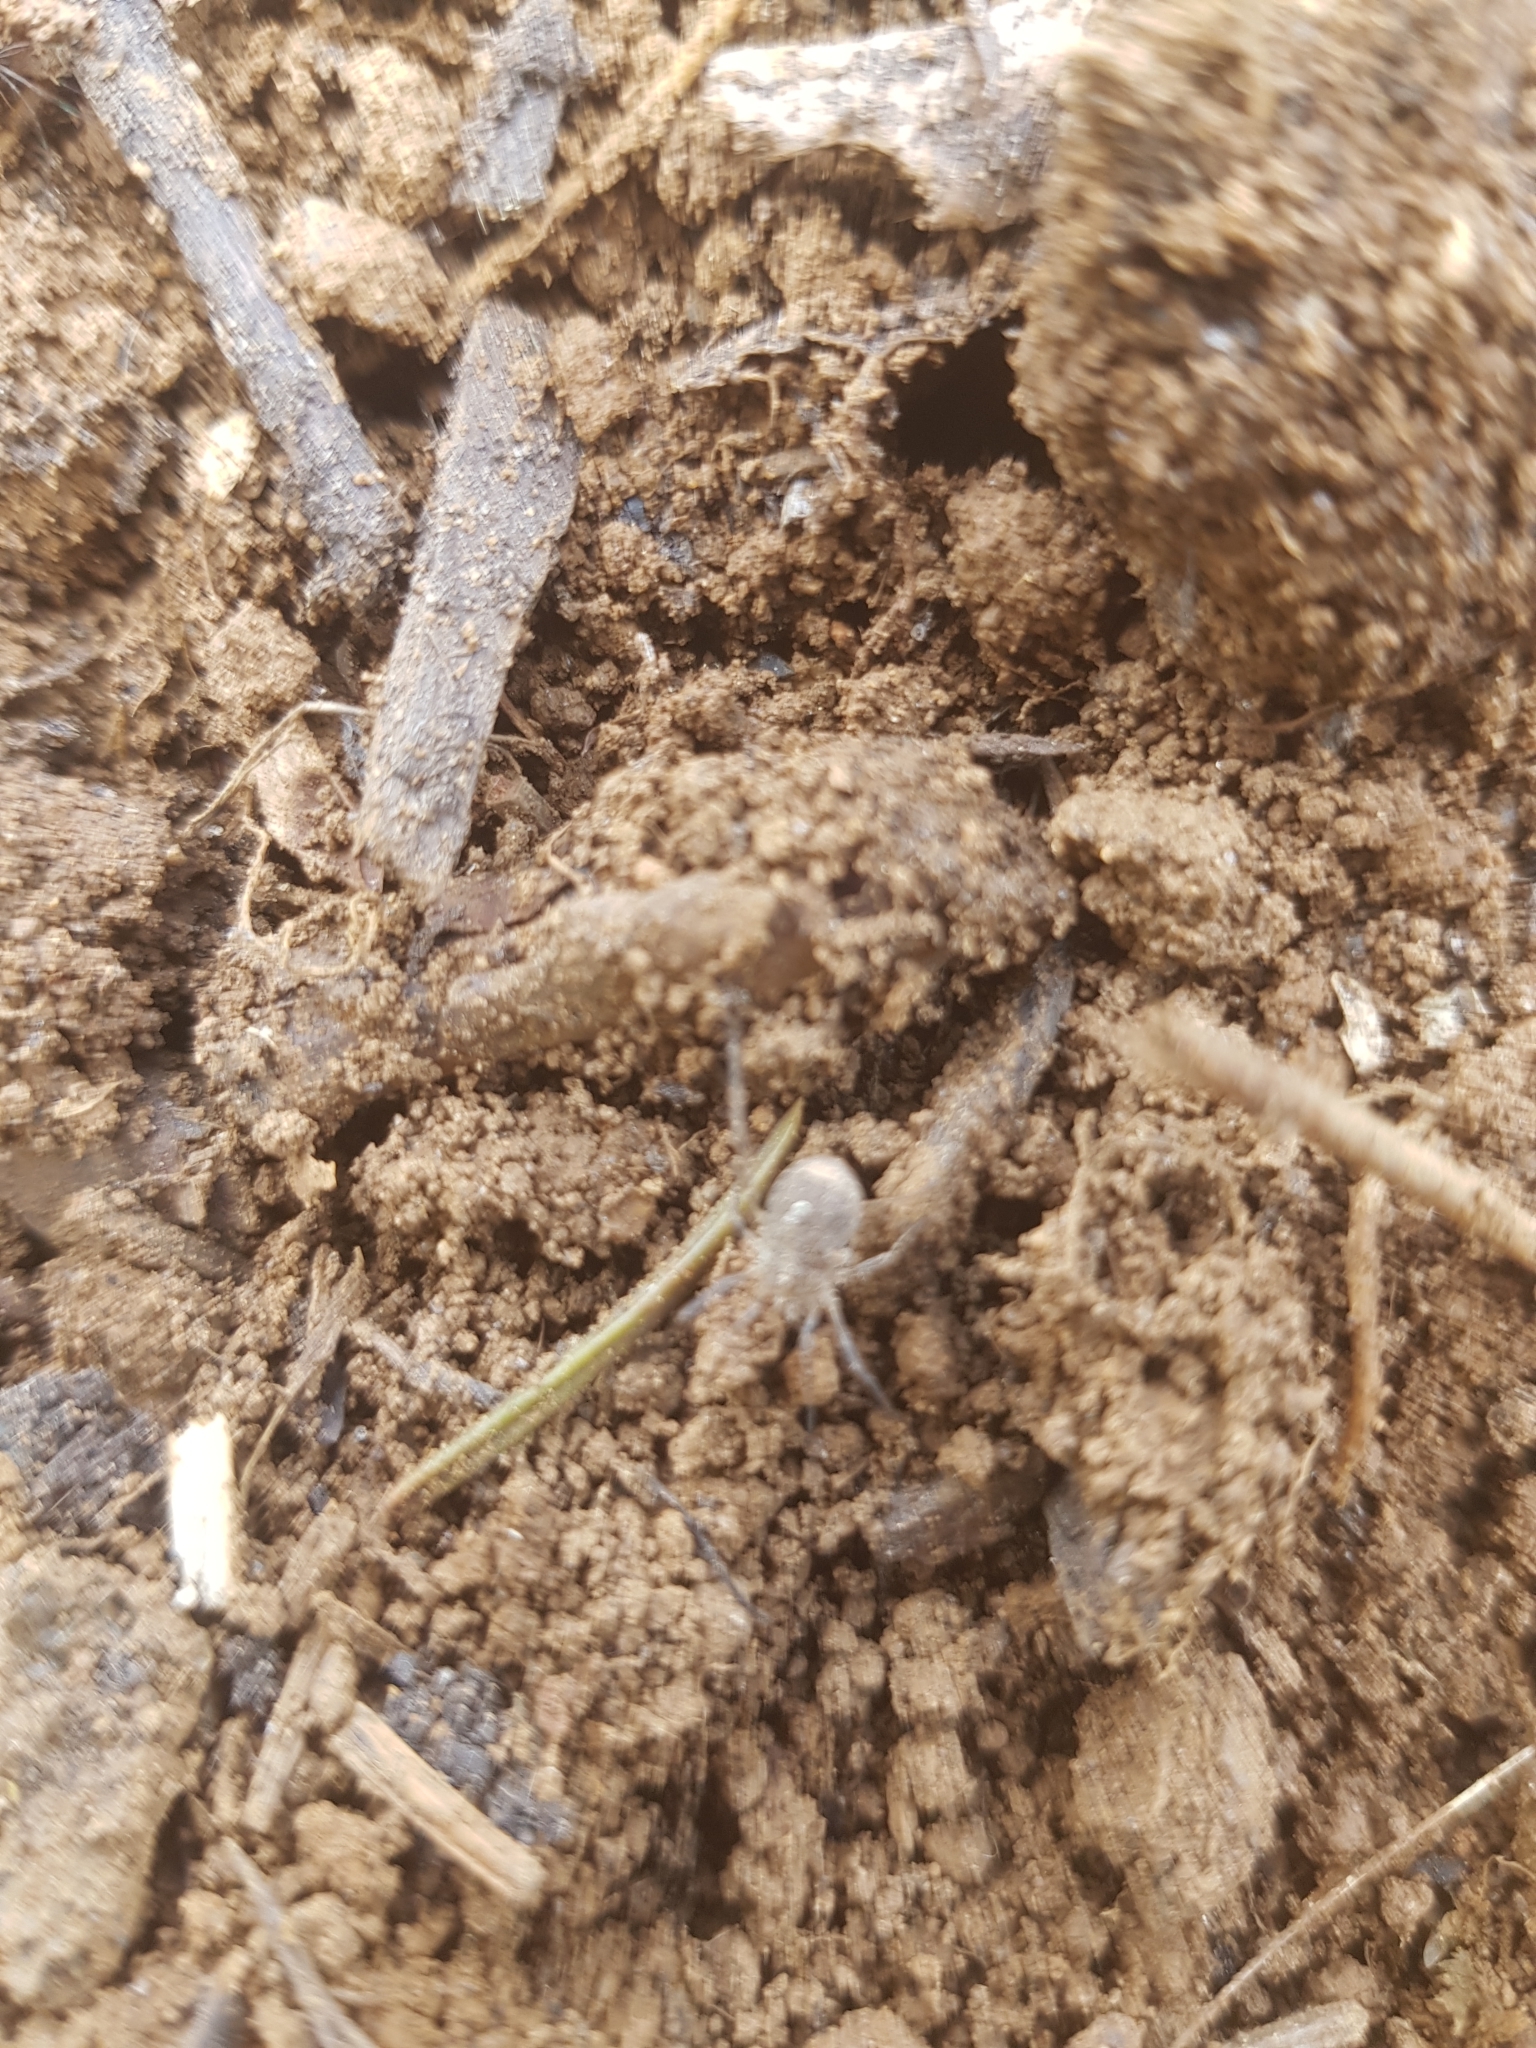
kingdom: Animalia
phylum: Arthropoda
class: Arachnida
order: Opiliones
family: Phalangiidae
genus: Odiellus
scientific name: Odiellus spinosus
